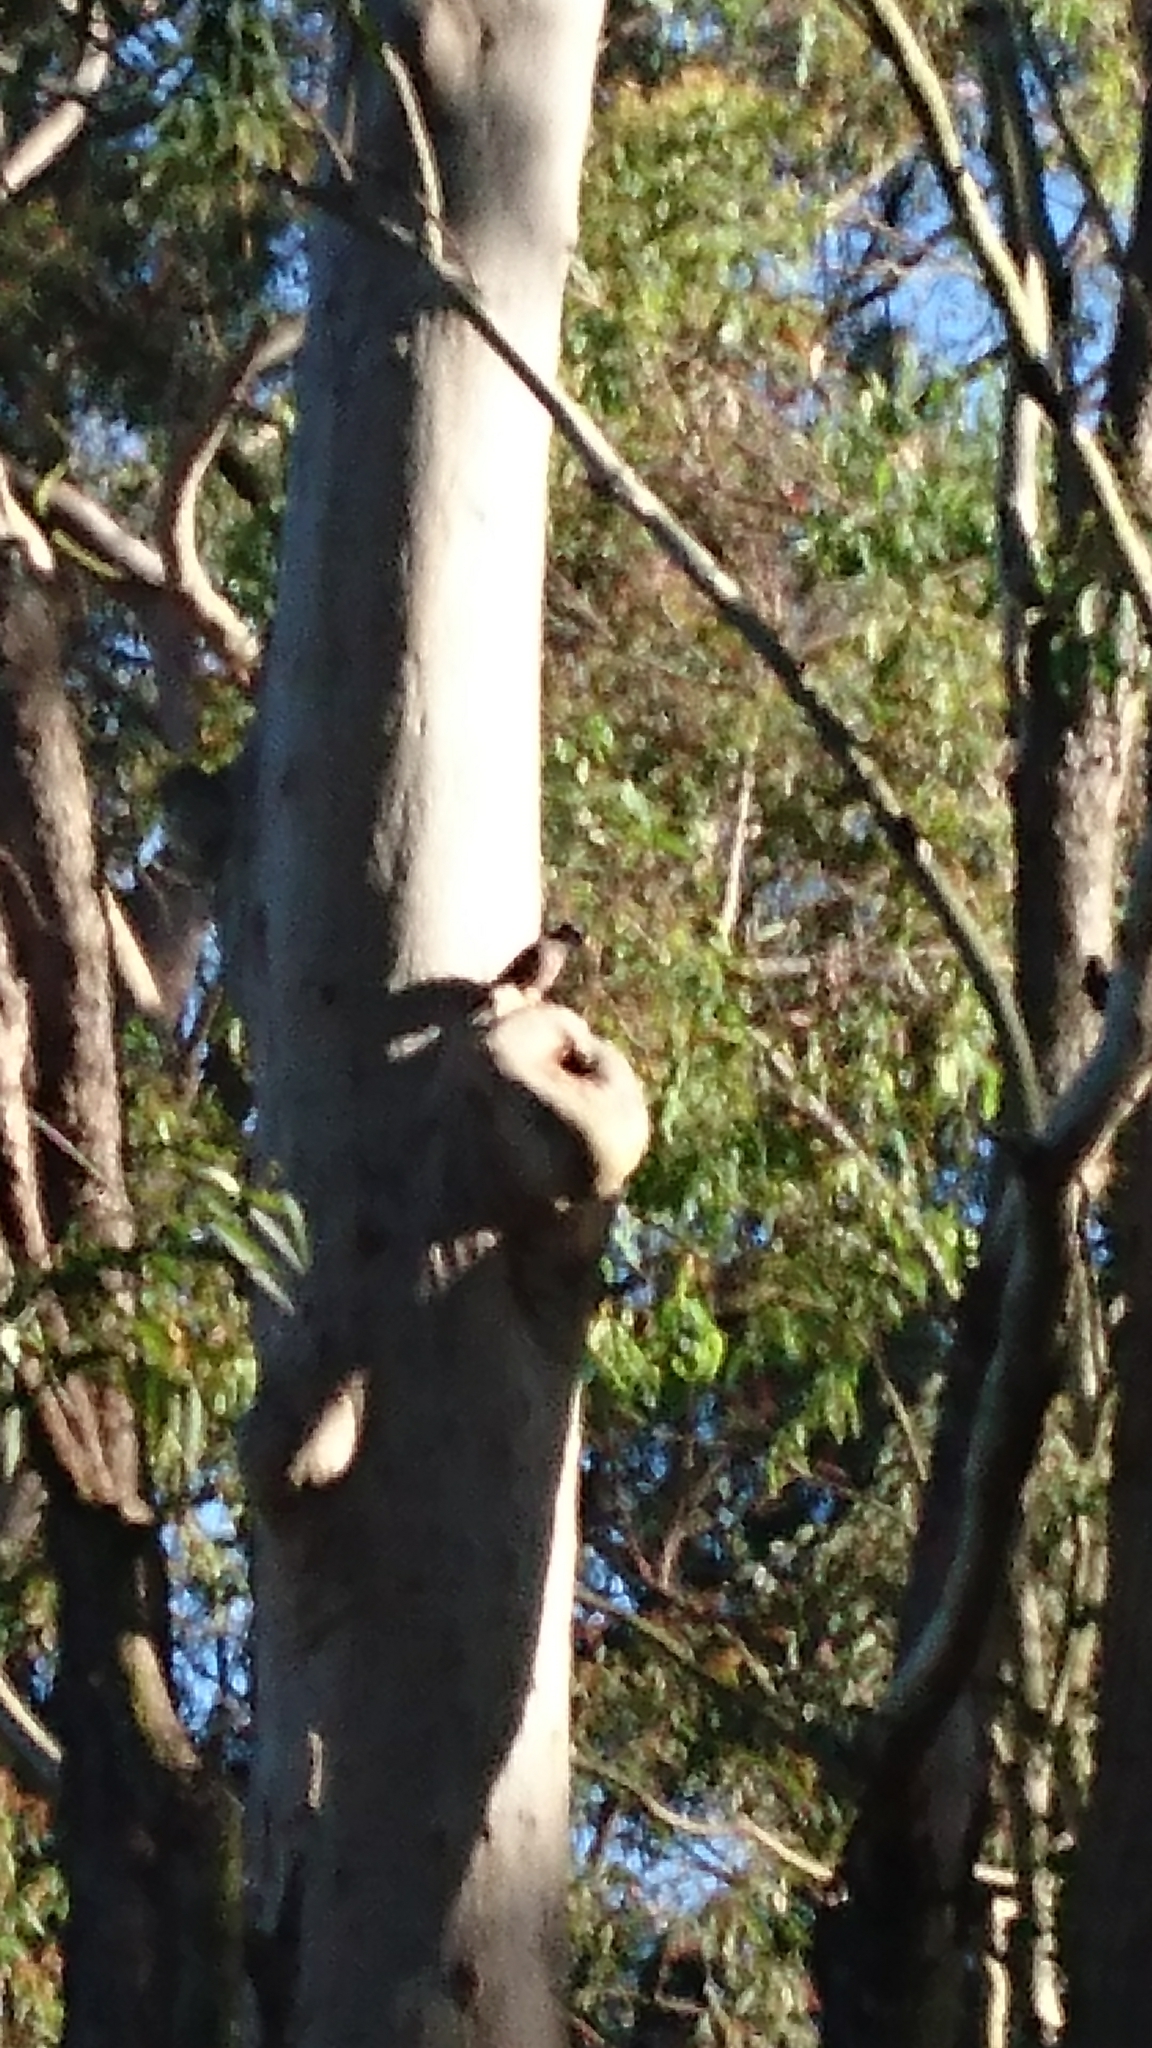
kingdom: Animalia
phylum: Chordata
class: Aves
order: Passeriformes
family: Sturnidae
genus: Acridotheres
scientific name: Acridotheres tristis
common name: Common myna
